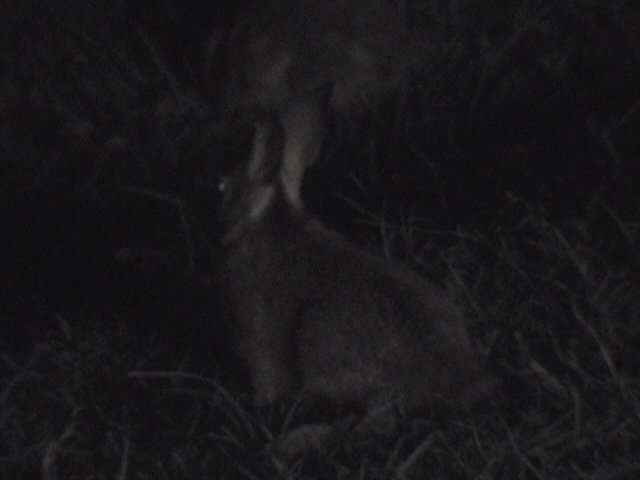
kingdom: Animalia
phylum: Chordata
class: Mammalia
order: Lagomorpha
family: Leporidae
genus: Lepus
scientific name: Lepus nigricollis
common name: Indian hare
